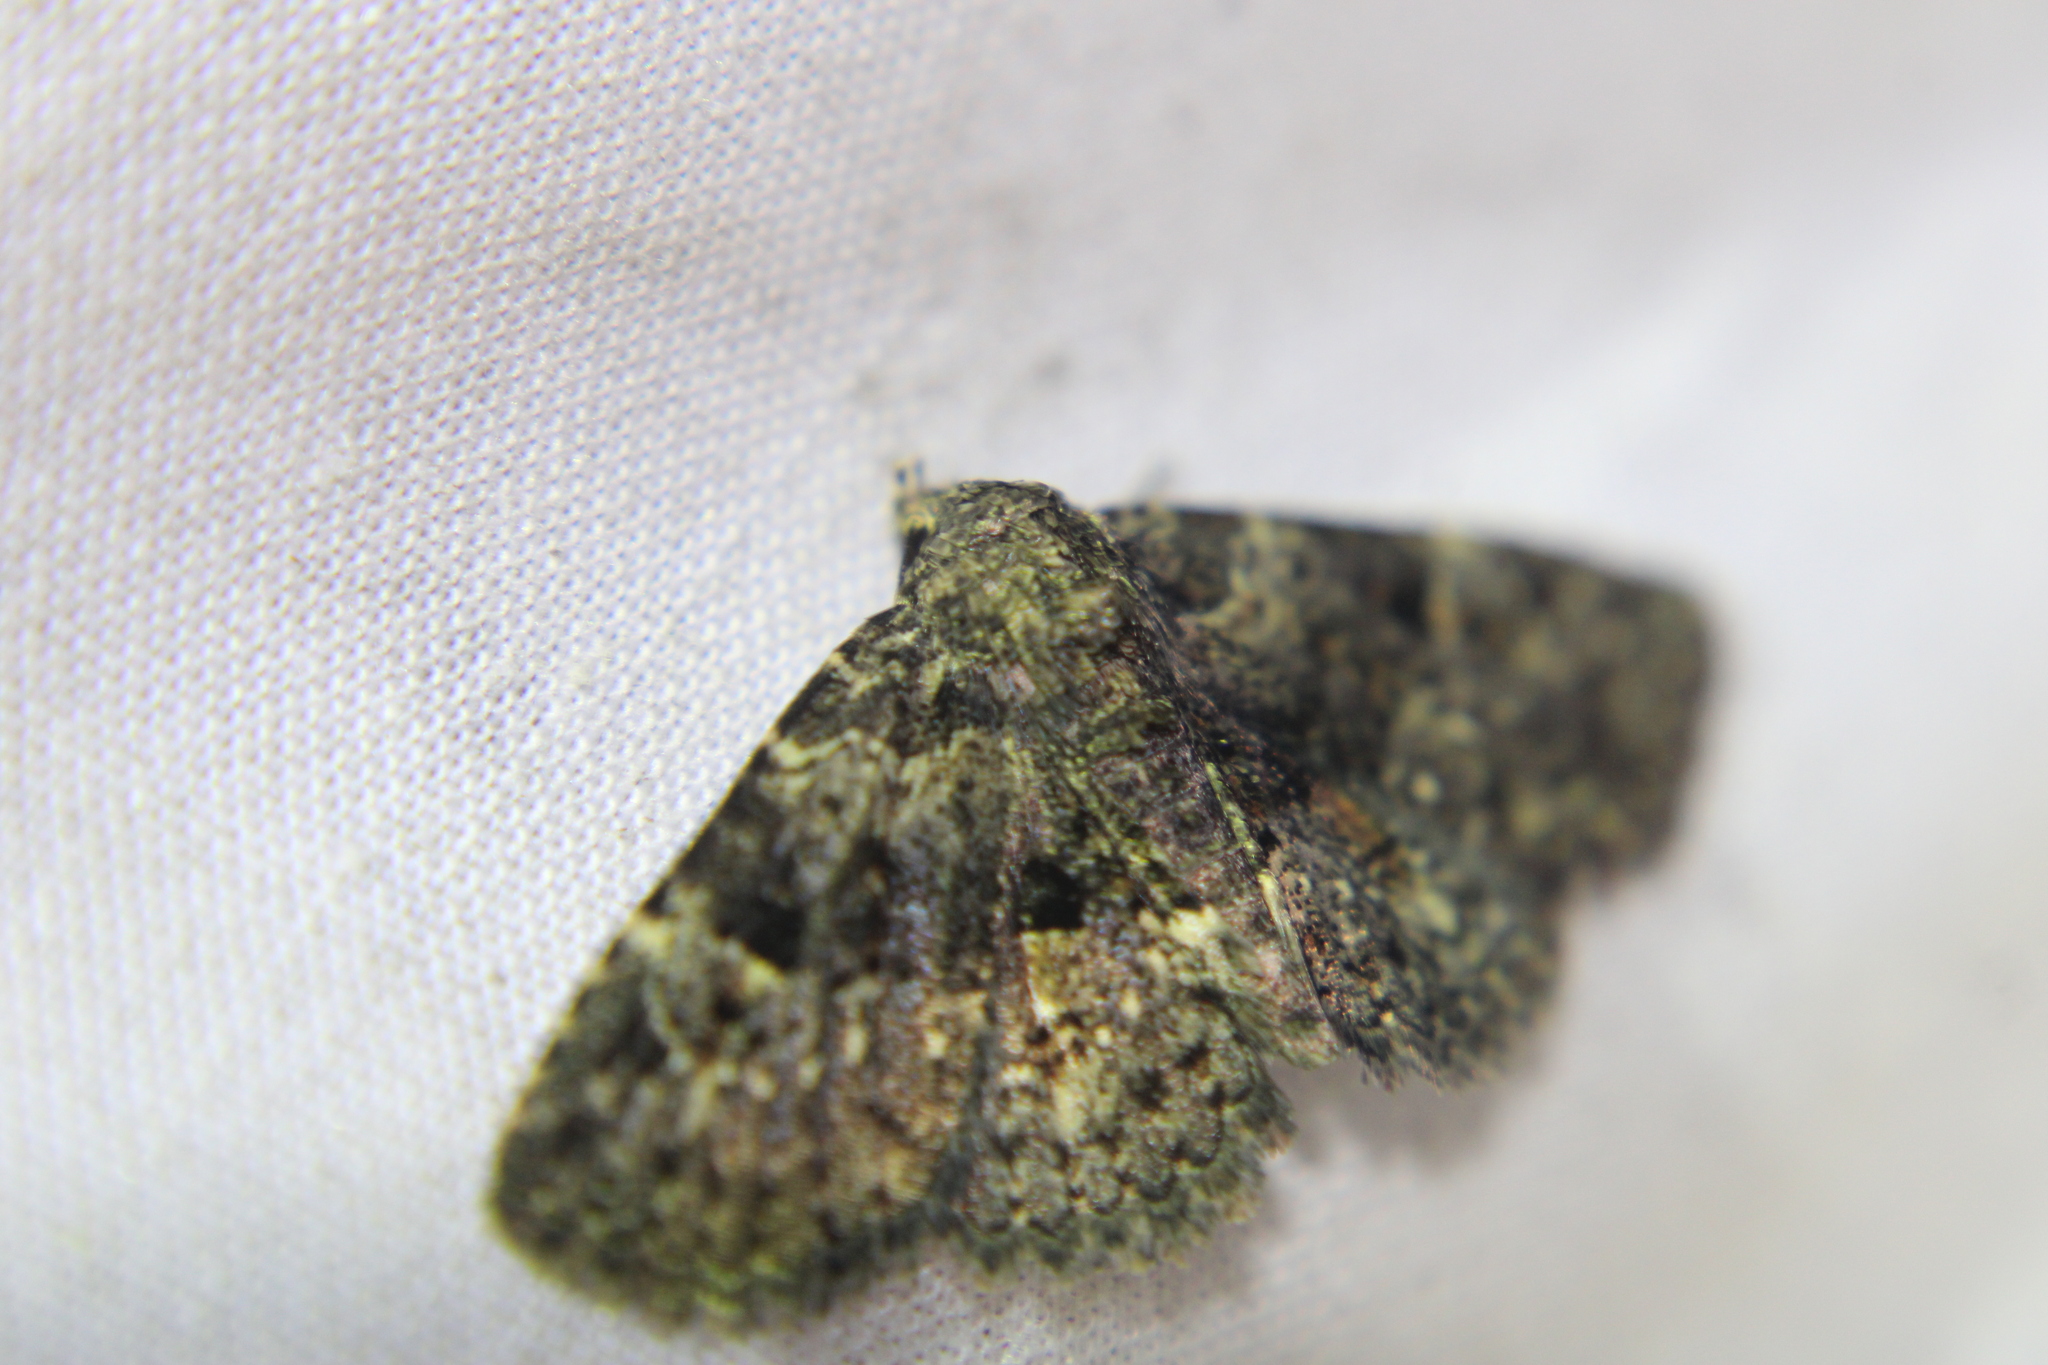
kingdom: Animalia
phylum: Arthropoda
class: Insecta
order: Lepidoptera
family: Erebidae
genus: Metalectra
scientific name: Metalectra discalis
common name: Common fungus moth
